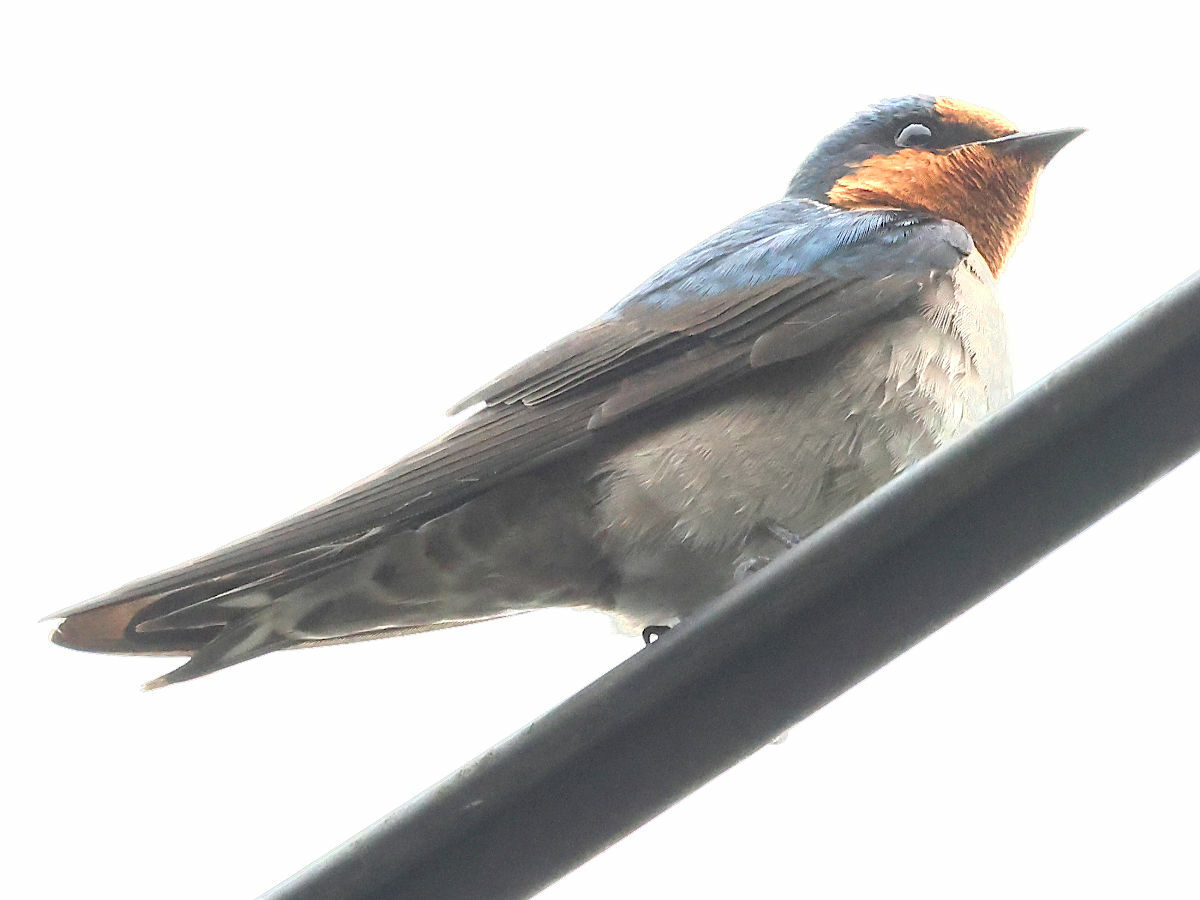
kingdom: Animalia
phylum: Chordata
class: Aves
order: Passeriformes
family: Hirundinidae
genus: Hirundo
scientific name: Hirundo tahitica
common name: Pacific swallow
